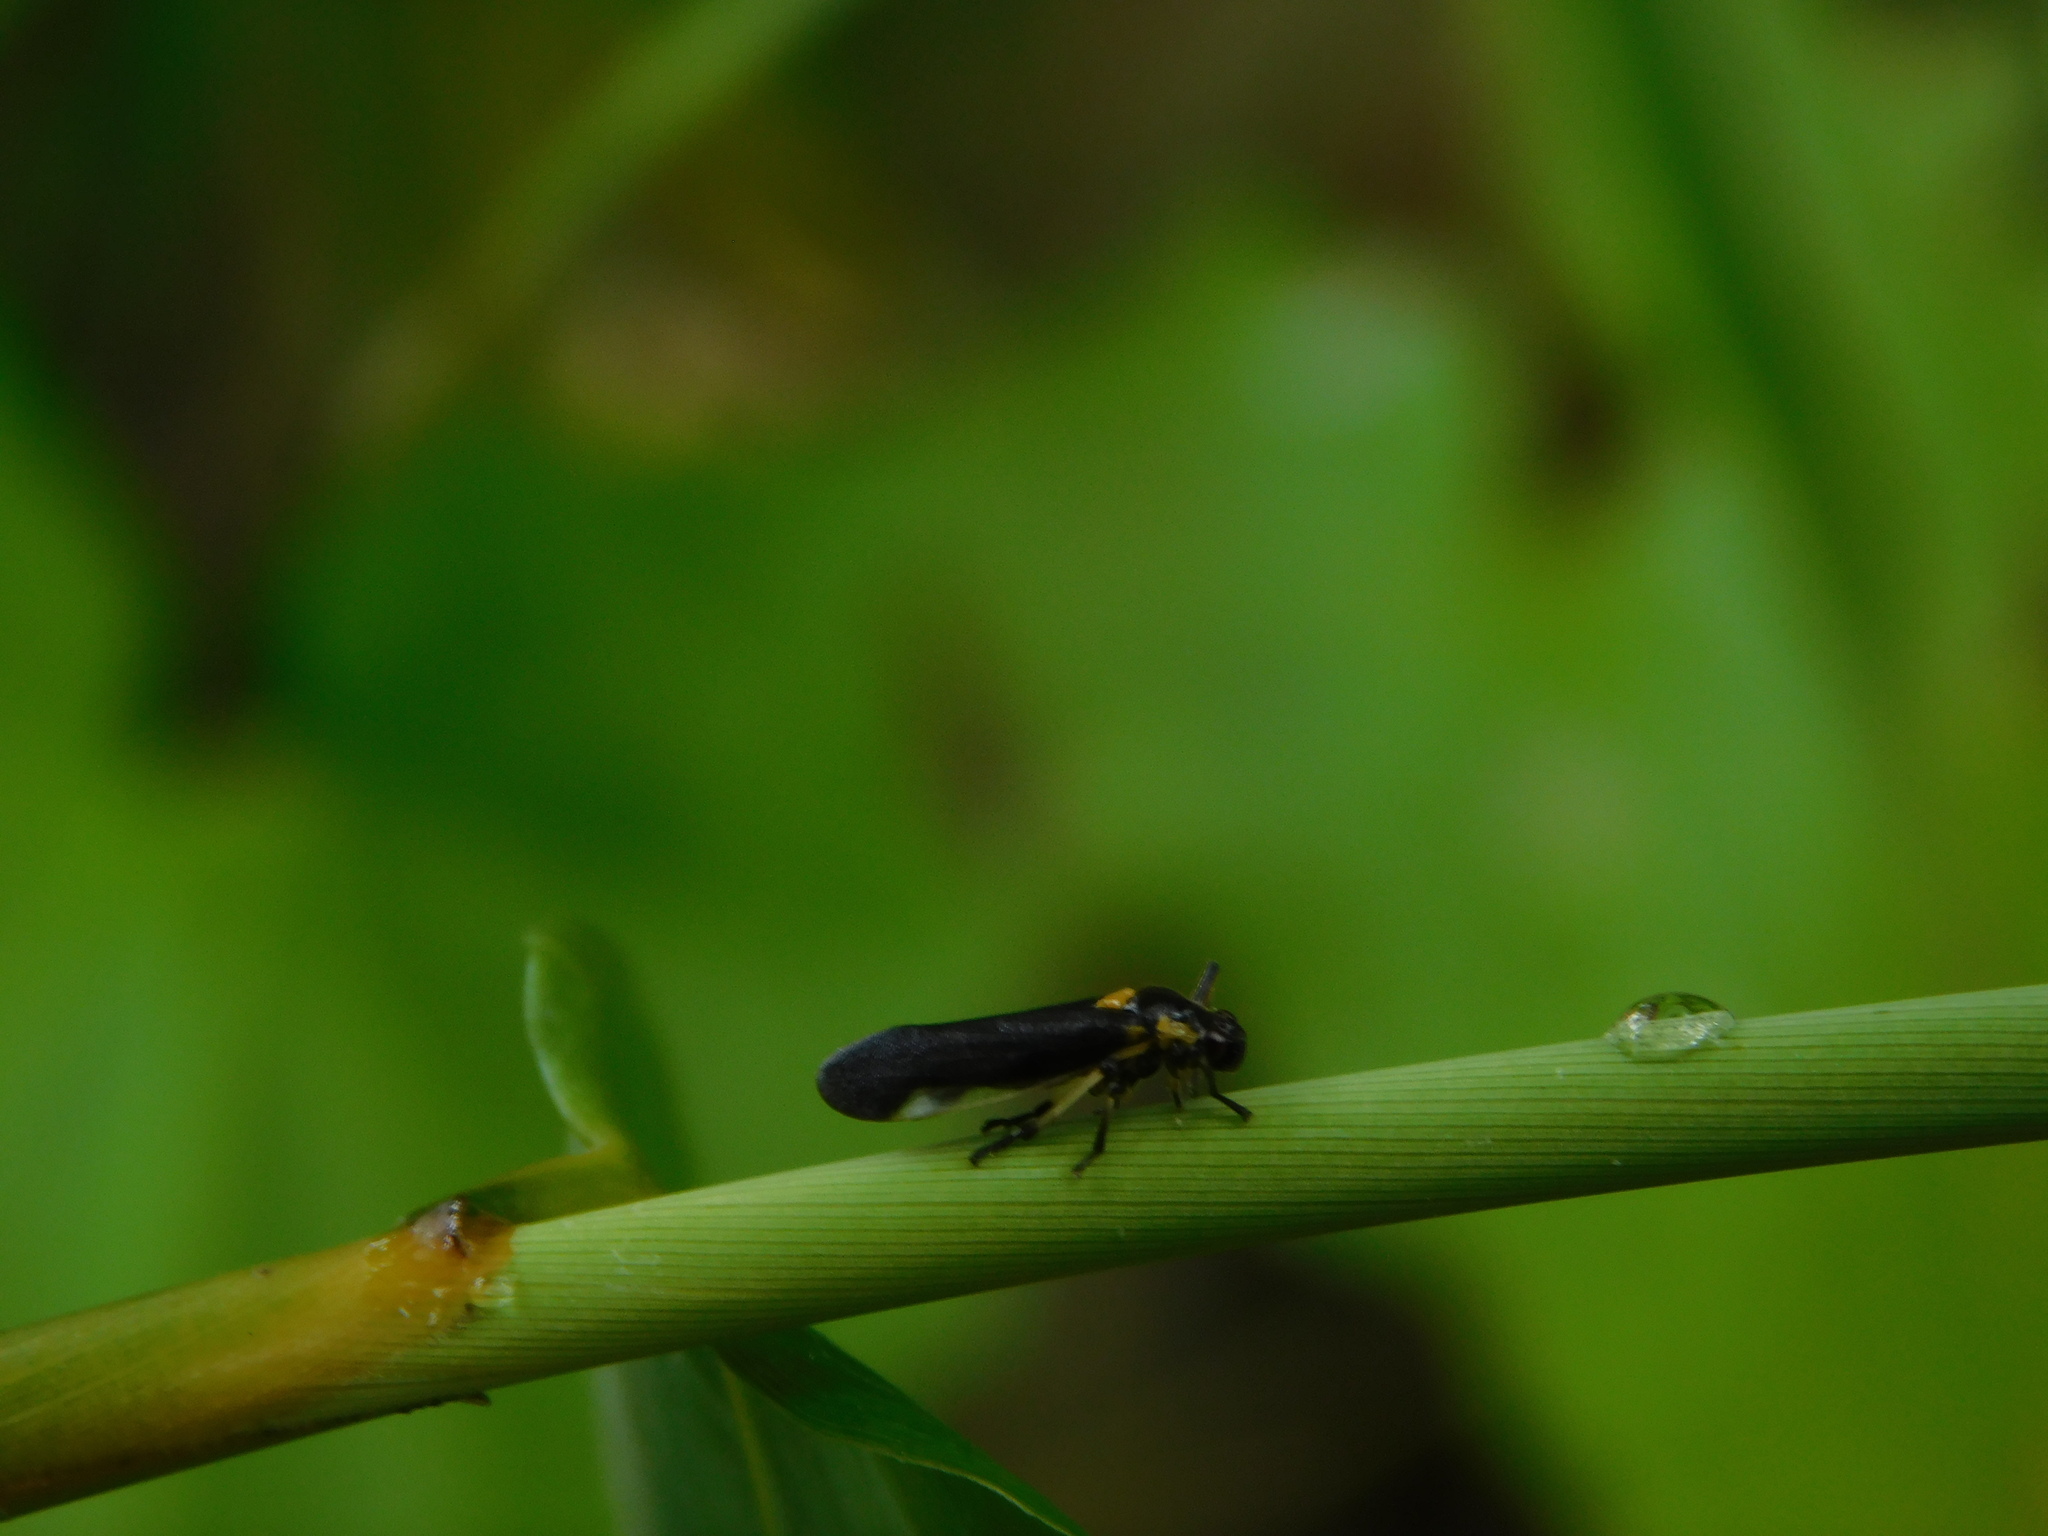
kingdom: Animalia
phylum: Arthropoda
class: Insecta
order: Hemiptera
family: Cercopidae
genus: Callitettix
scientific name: Callitettix costalis
